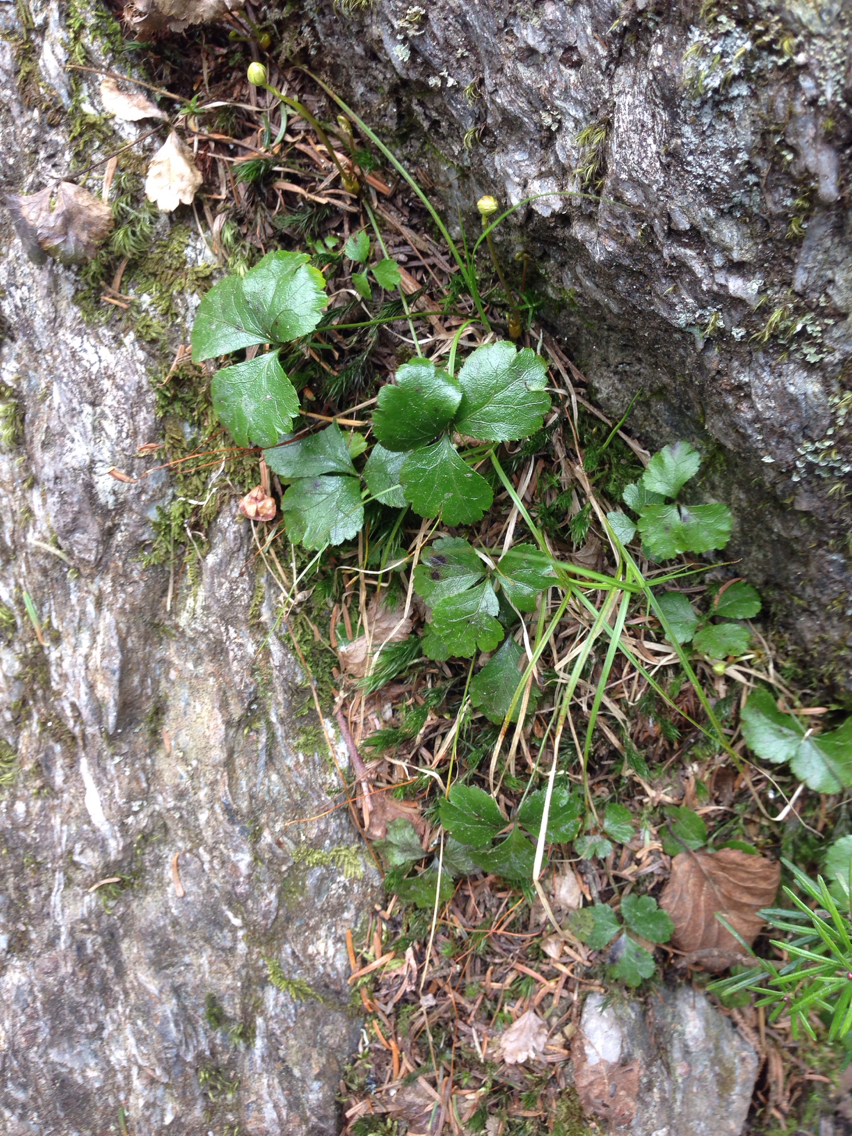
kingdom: Plantae
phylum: Tracheophyta
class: Magnoliopsida
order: Ranunculales
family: Ranunculaceae
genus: Coptis
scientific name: Coptis trifolia
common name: Canker-root
